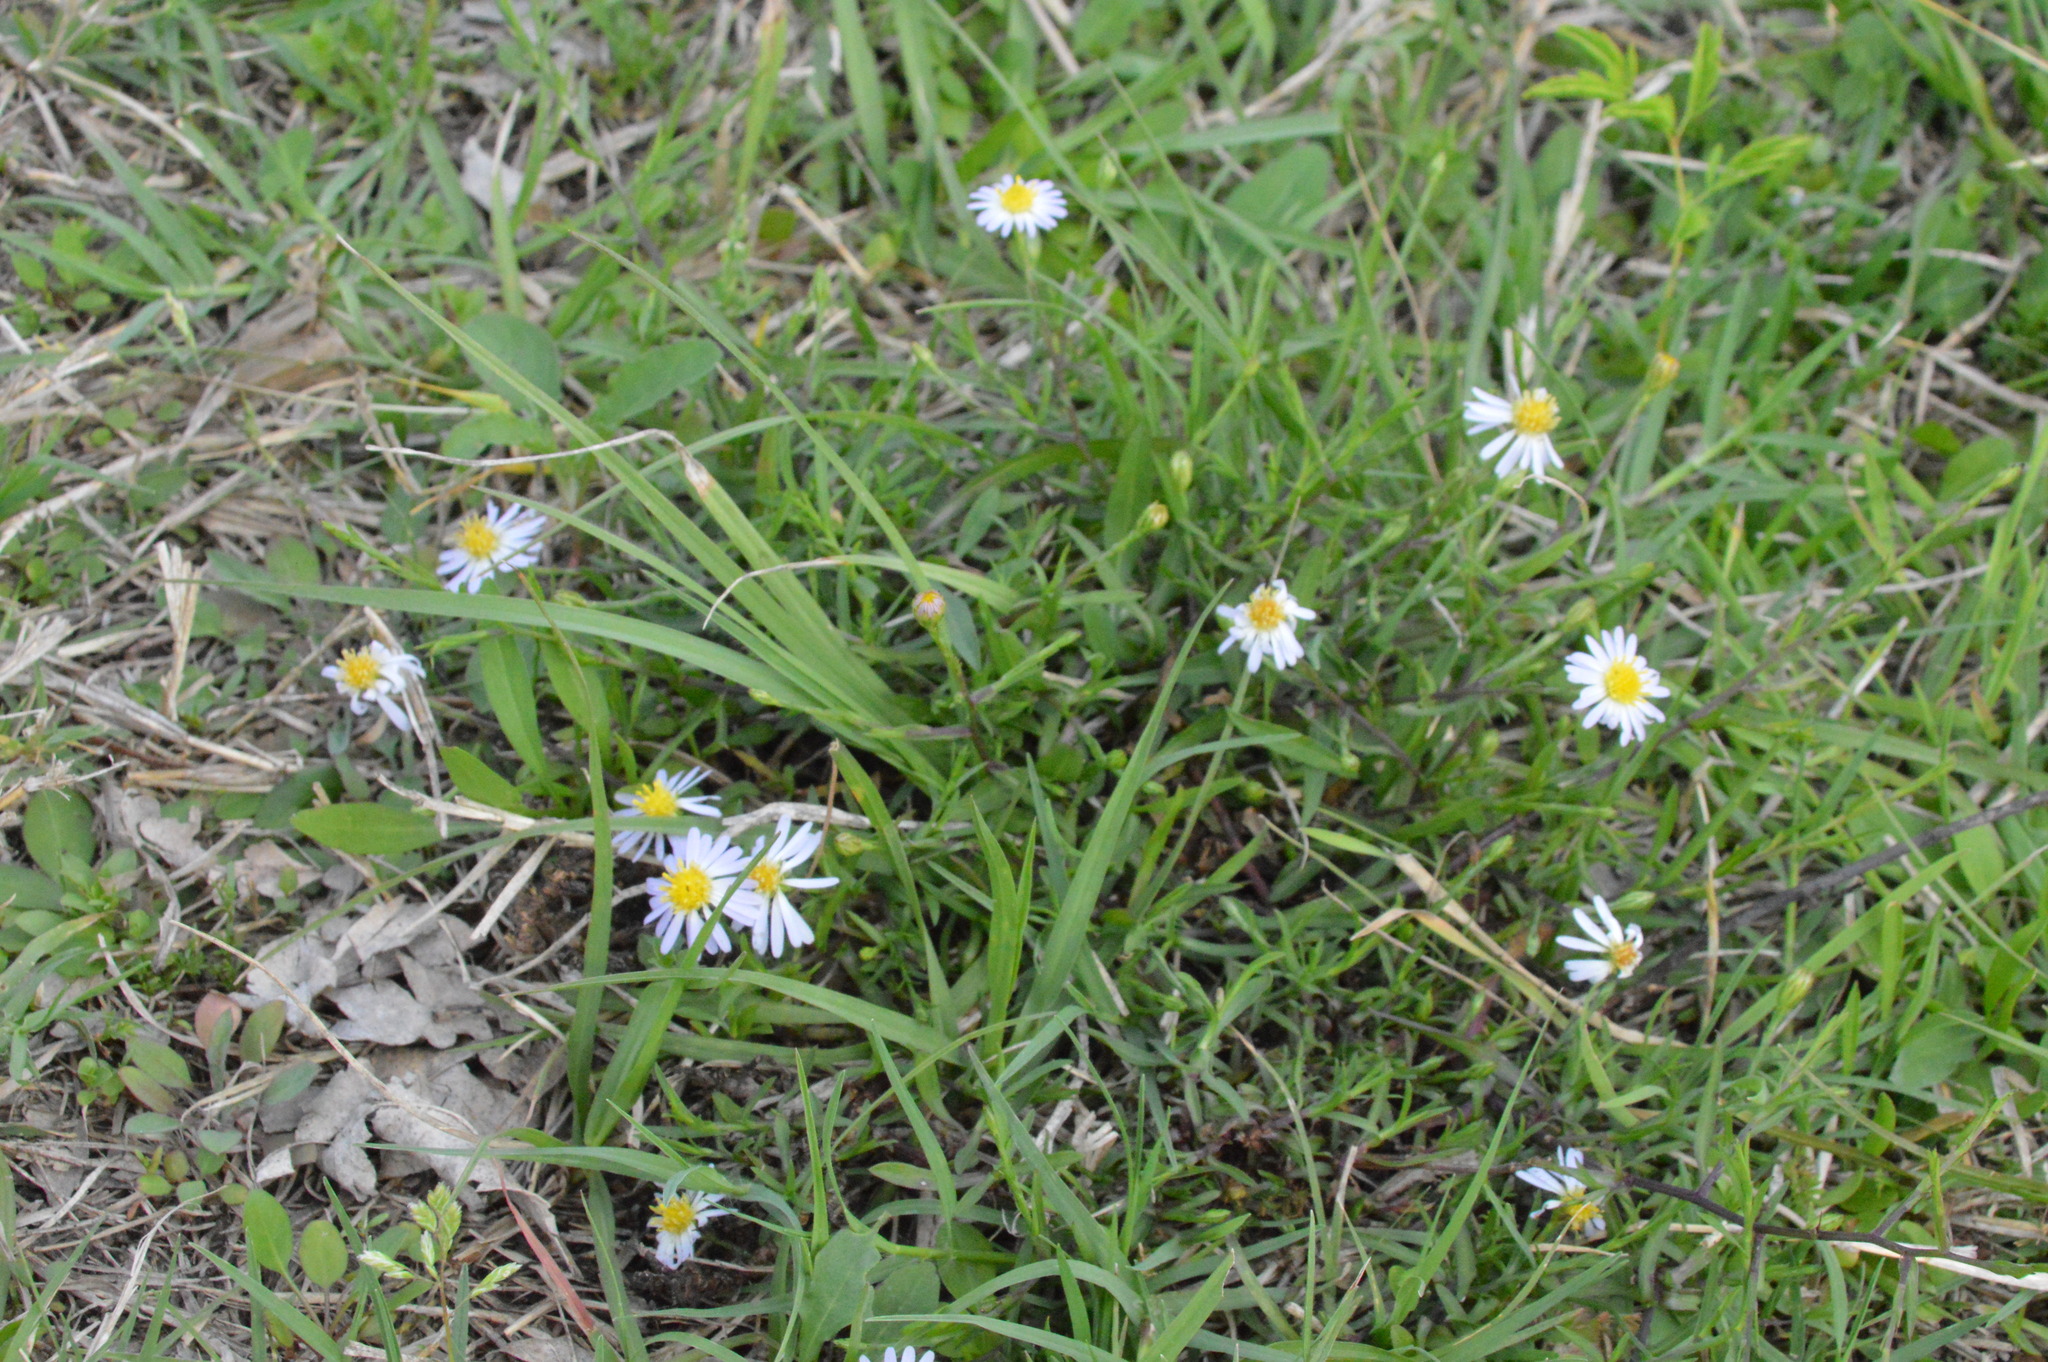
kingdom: Plantae
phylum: Tracheophyta
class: Magnoliopsida
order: Asterales
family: Asteraceae
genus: Symphyotrichum
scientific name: Symphyotrichum divaricatum
